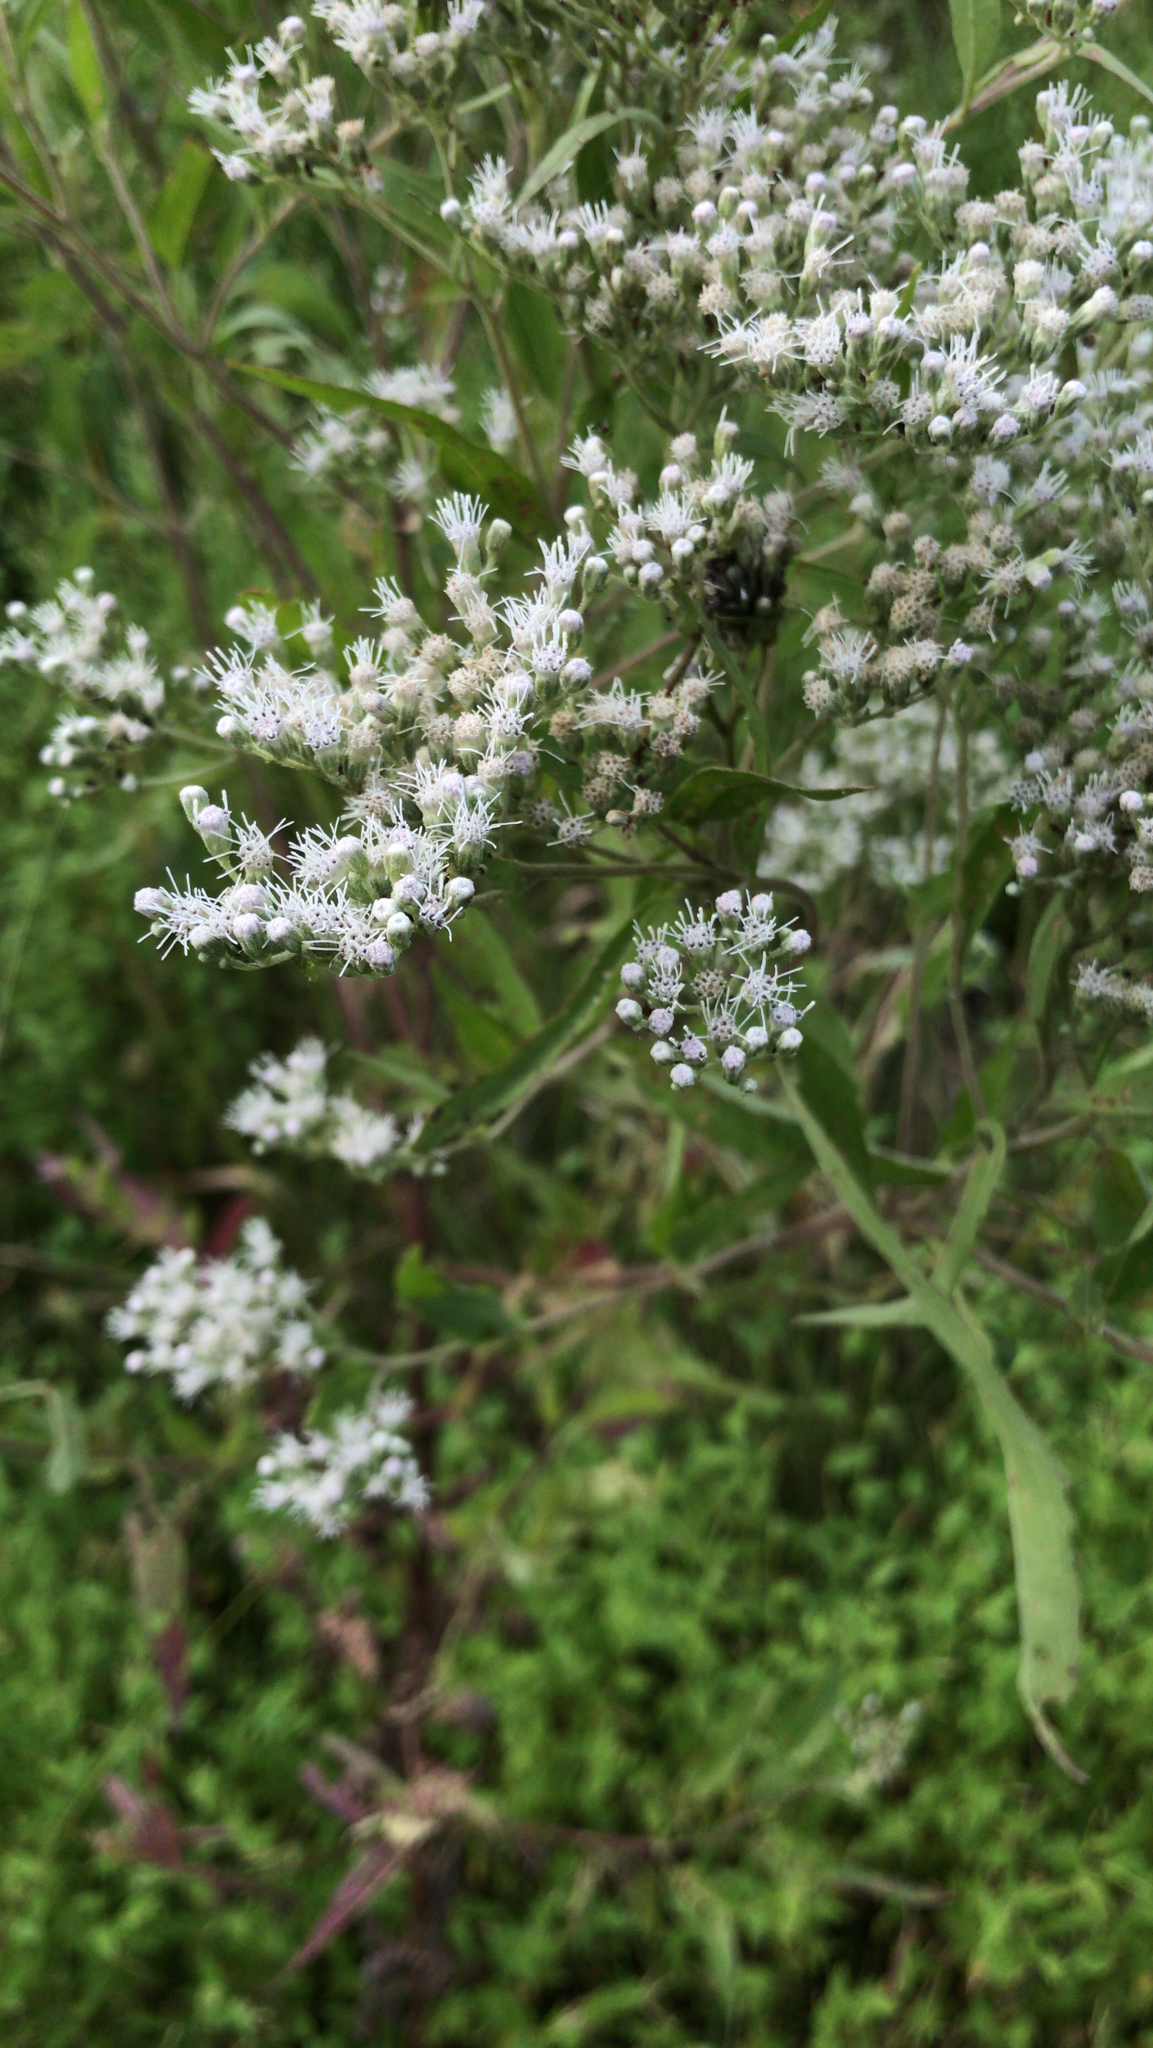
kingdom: Plantae
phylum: Tracheophyta
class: Magnoliopsida
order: Asterales
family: Asteraceae
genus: Eupatorium
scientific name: Eupatorium serotinum
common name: Late boneset
